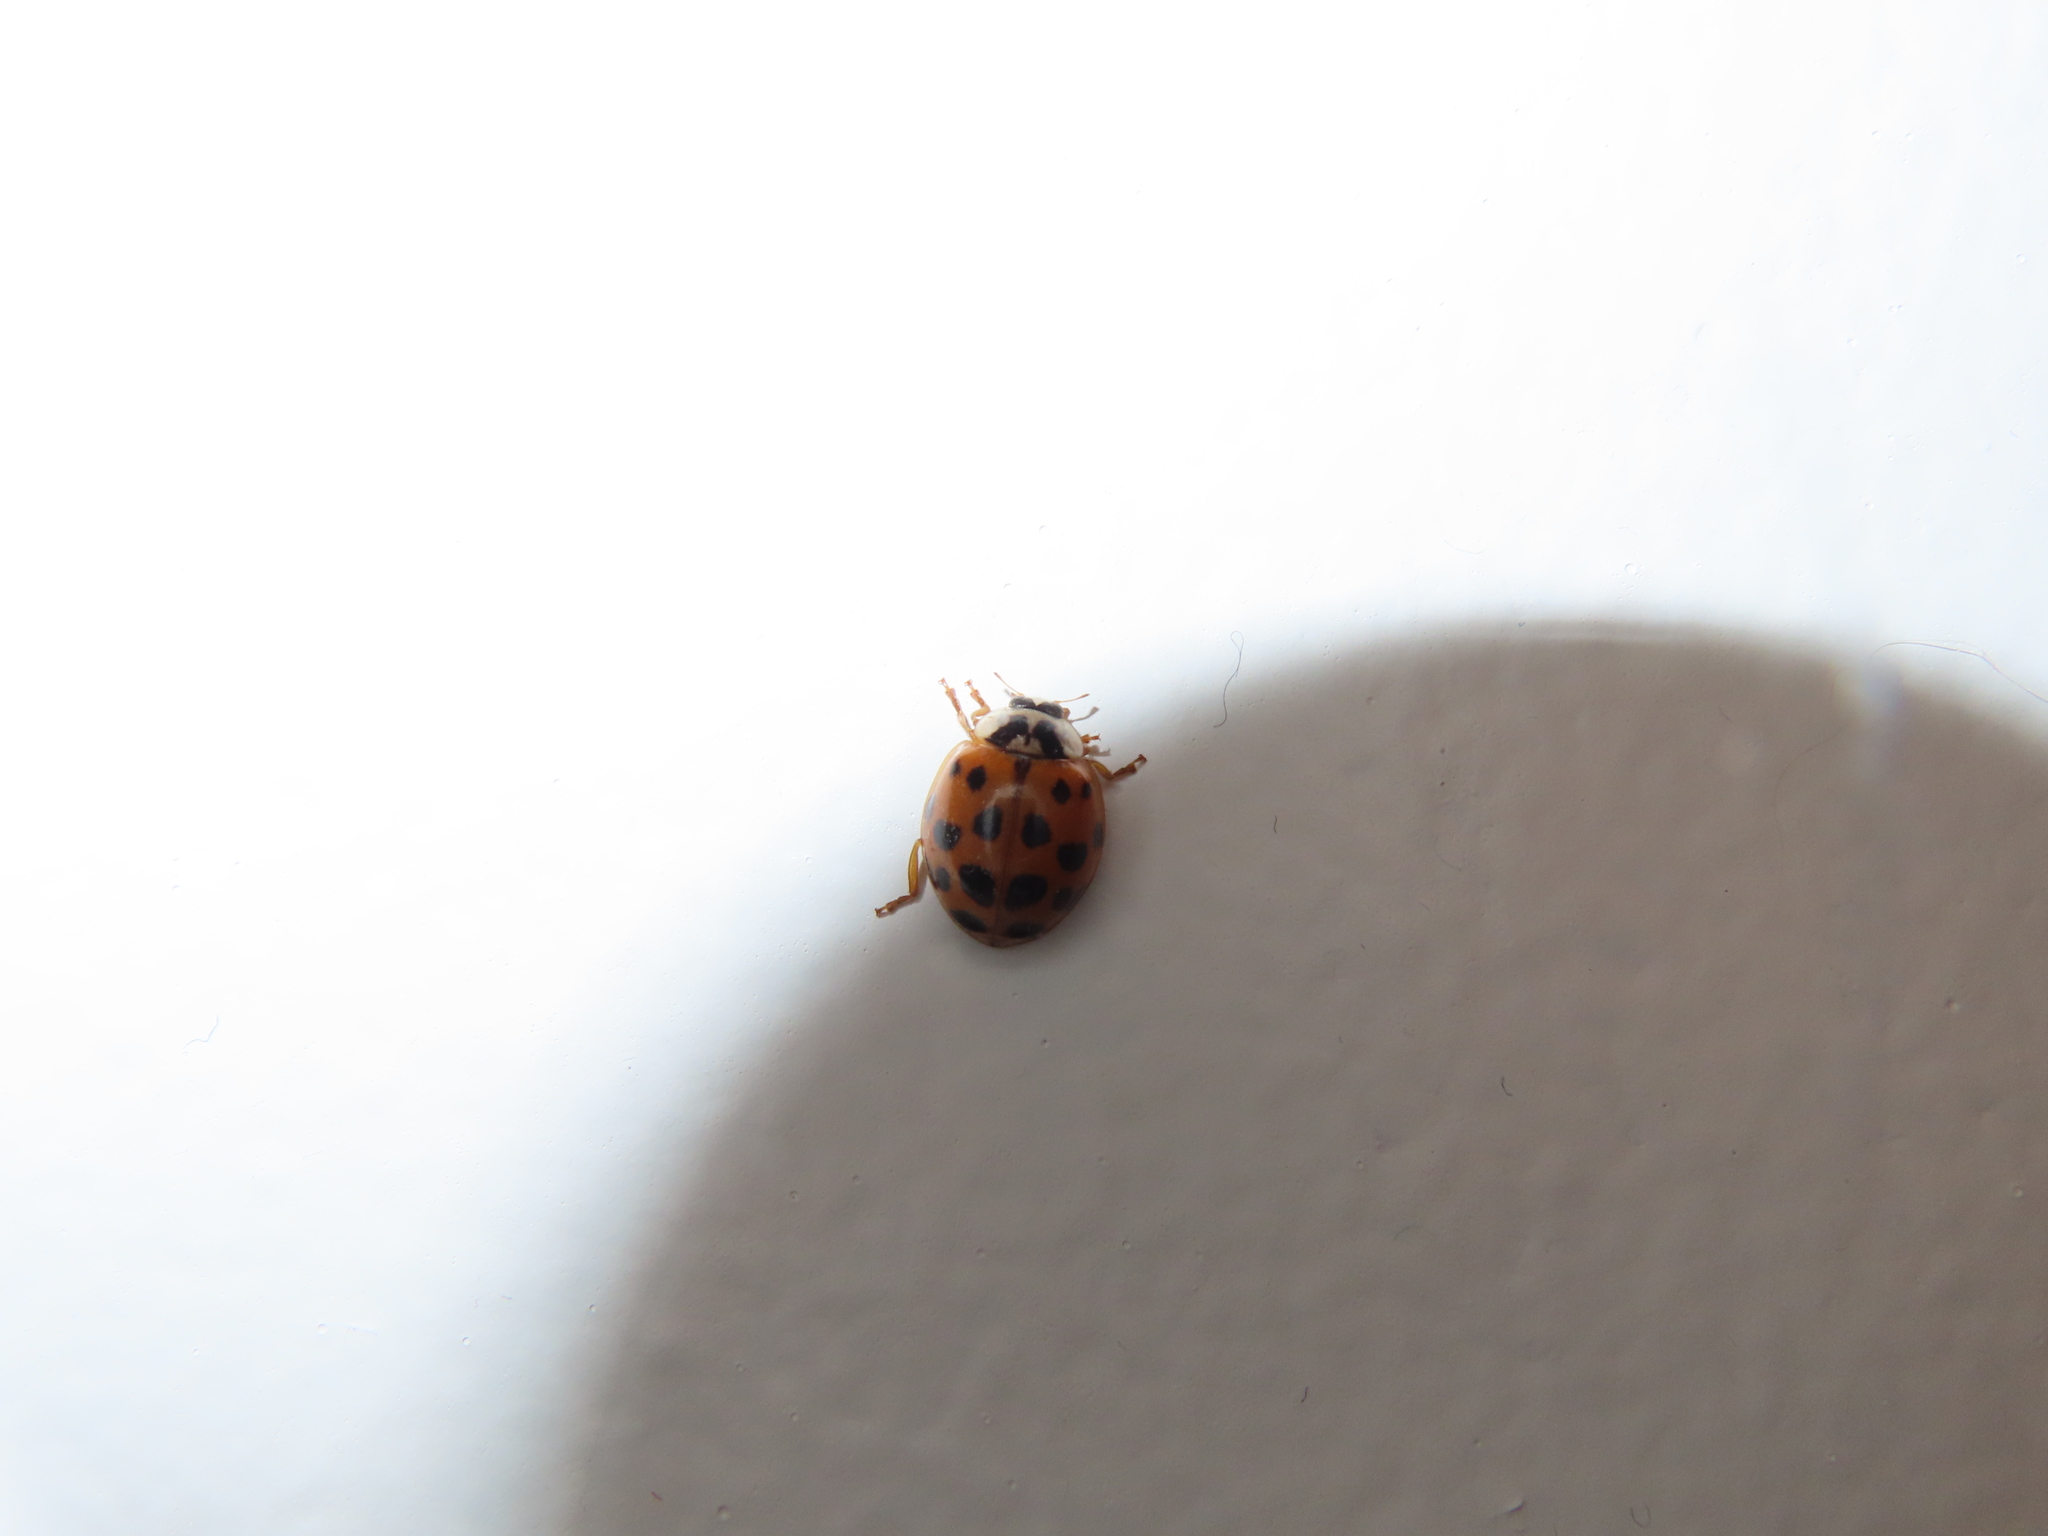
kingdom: Animalia
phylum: Arthropoda
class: Insecta
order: Coleoptera
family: Coccinellidae
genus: Harmonia
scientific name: Harmonia axyridis
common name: Harlequin ladybird
